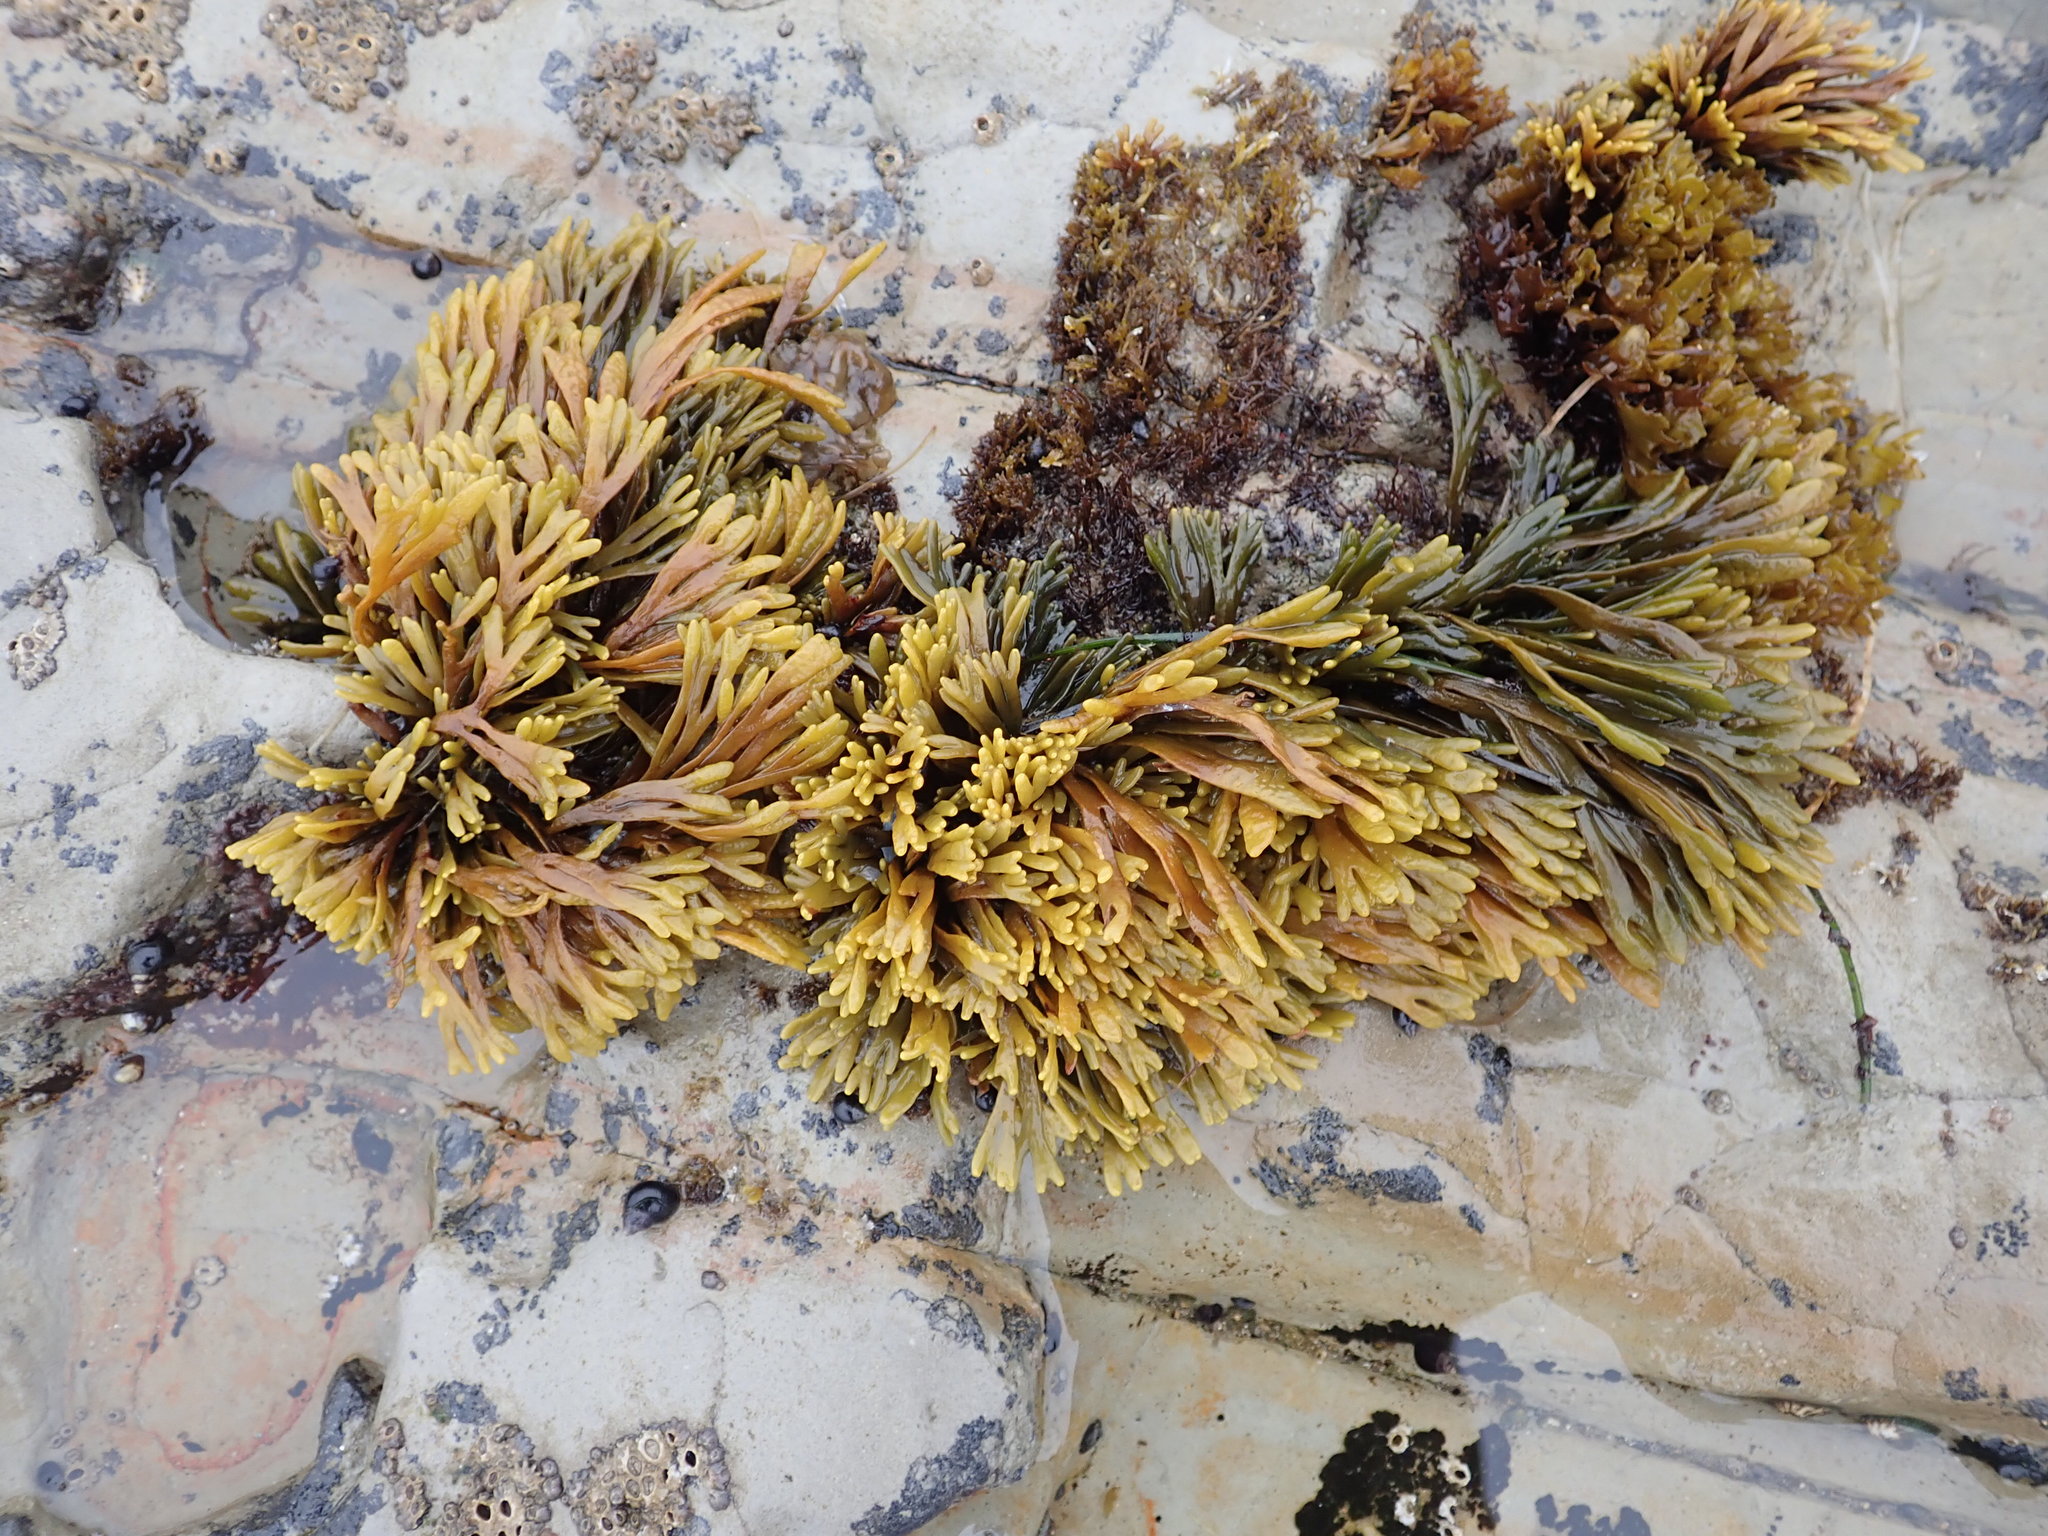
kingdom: Chromista
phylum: Ochrophyta
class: Phaeophyceae
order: Fucales
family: Fucaceae
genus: Pelvetiopsis
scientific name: Pelvetiopsis limitata
